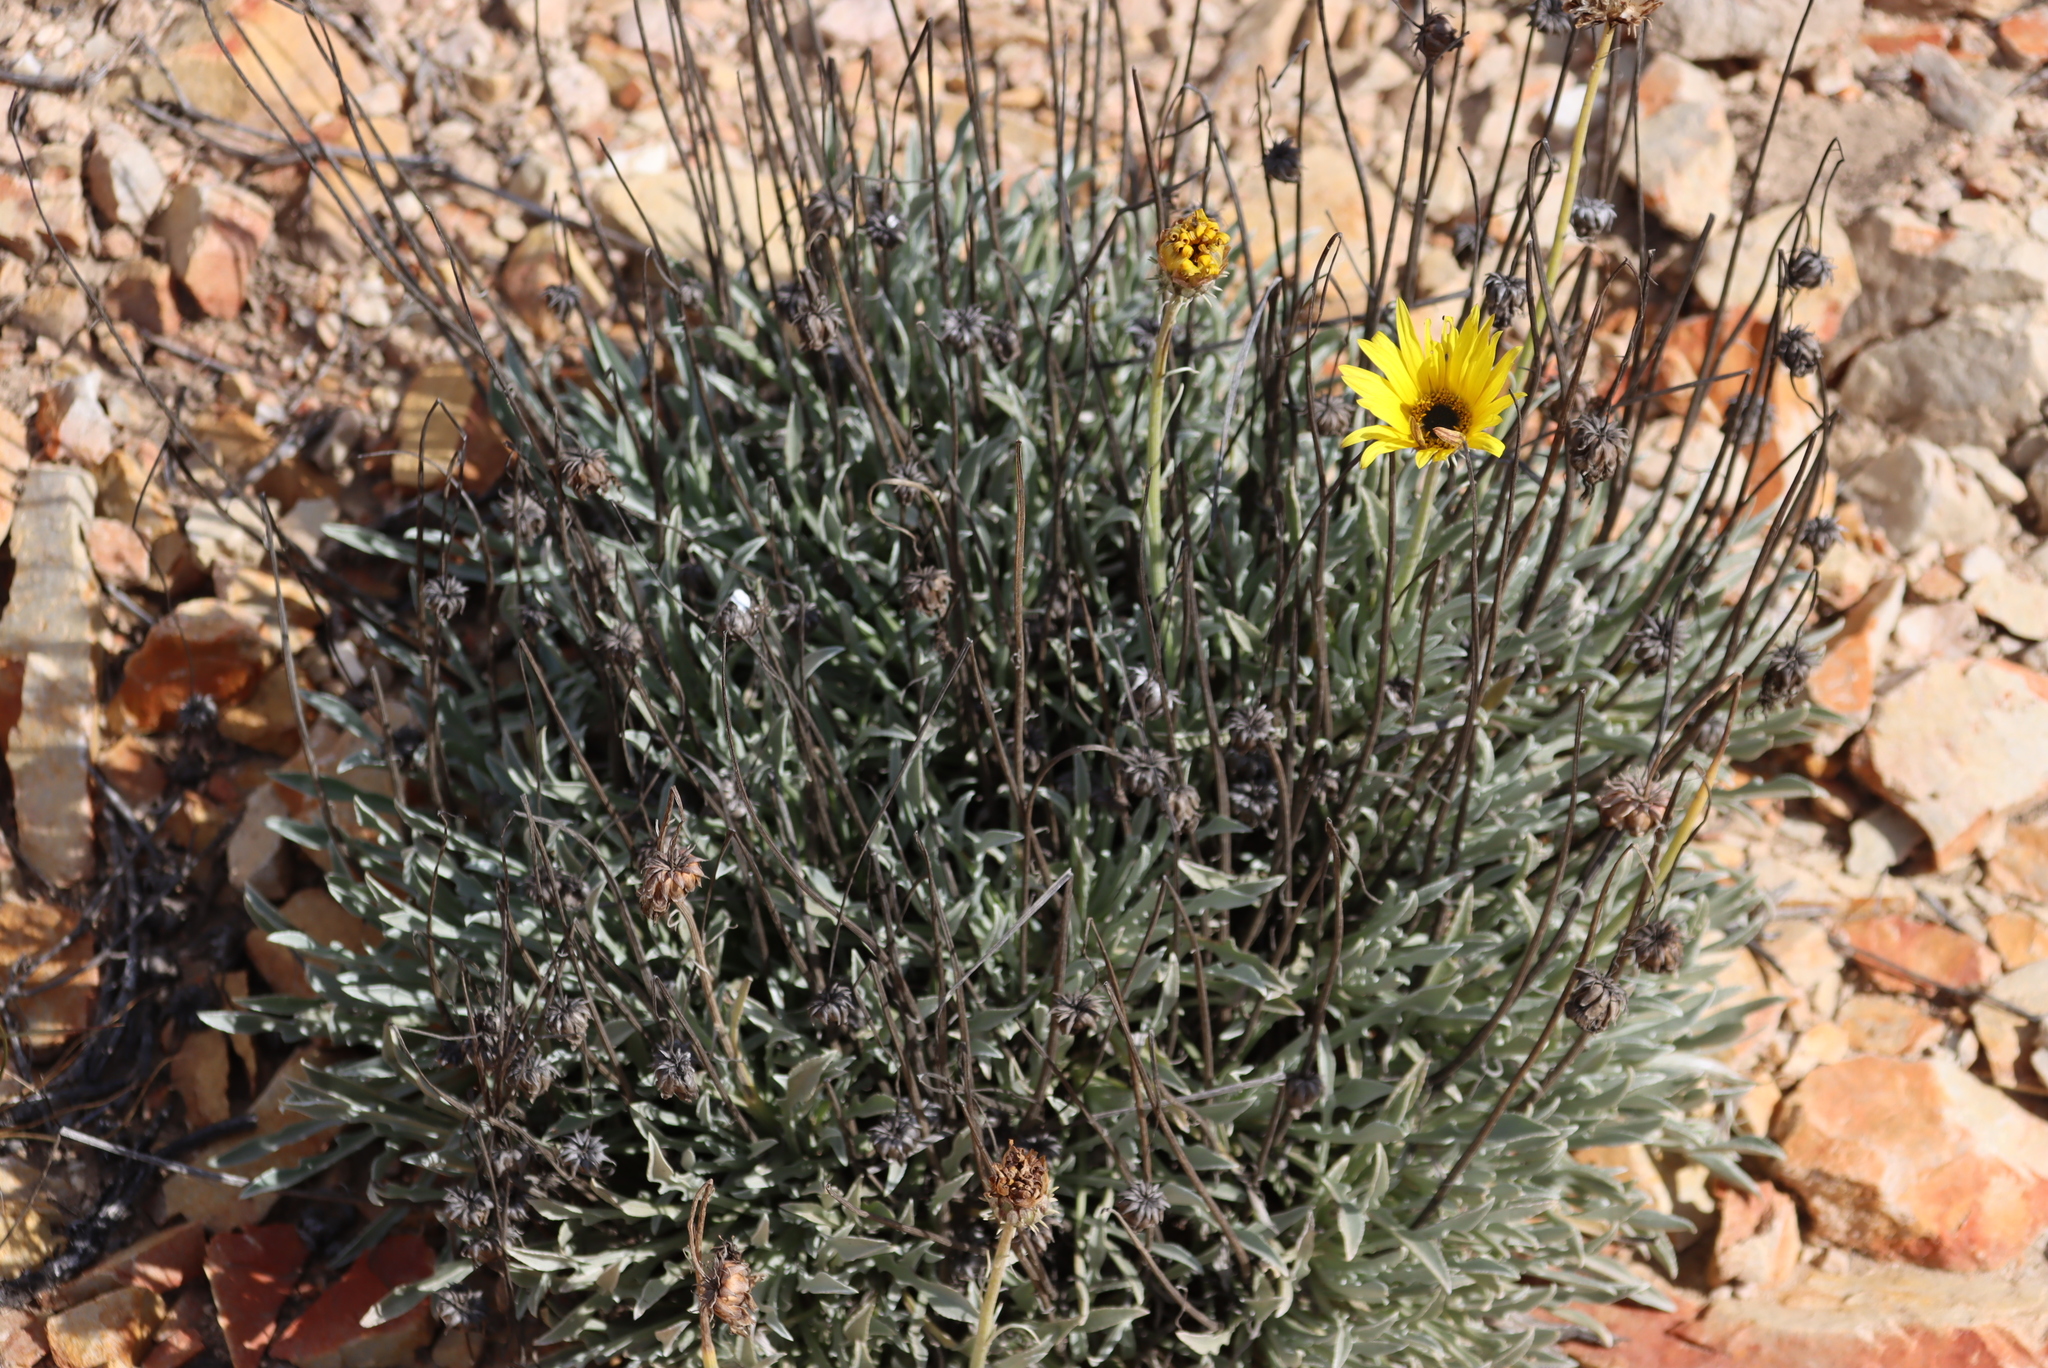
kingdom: Plantae
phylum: Tracheophyta
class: Magnoliopsida
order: Asterales
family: Asteraceae
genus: Arctotis
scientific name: Arctotis linearis
